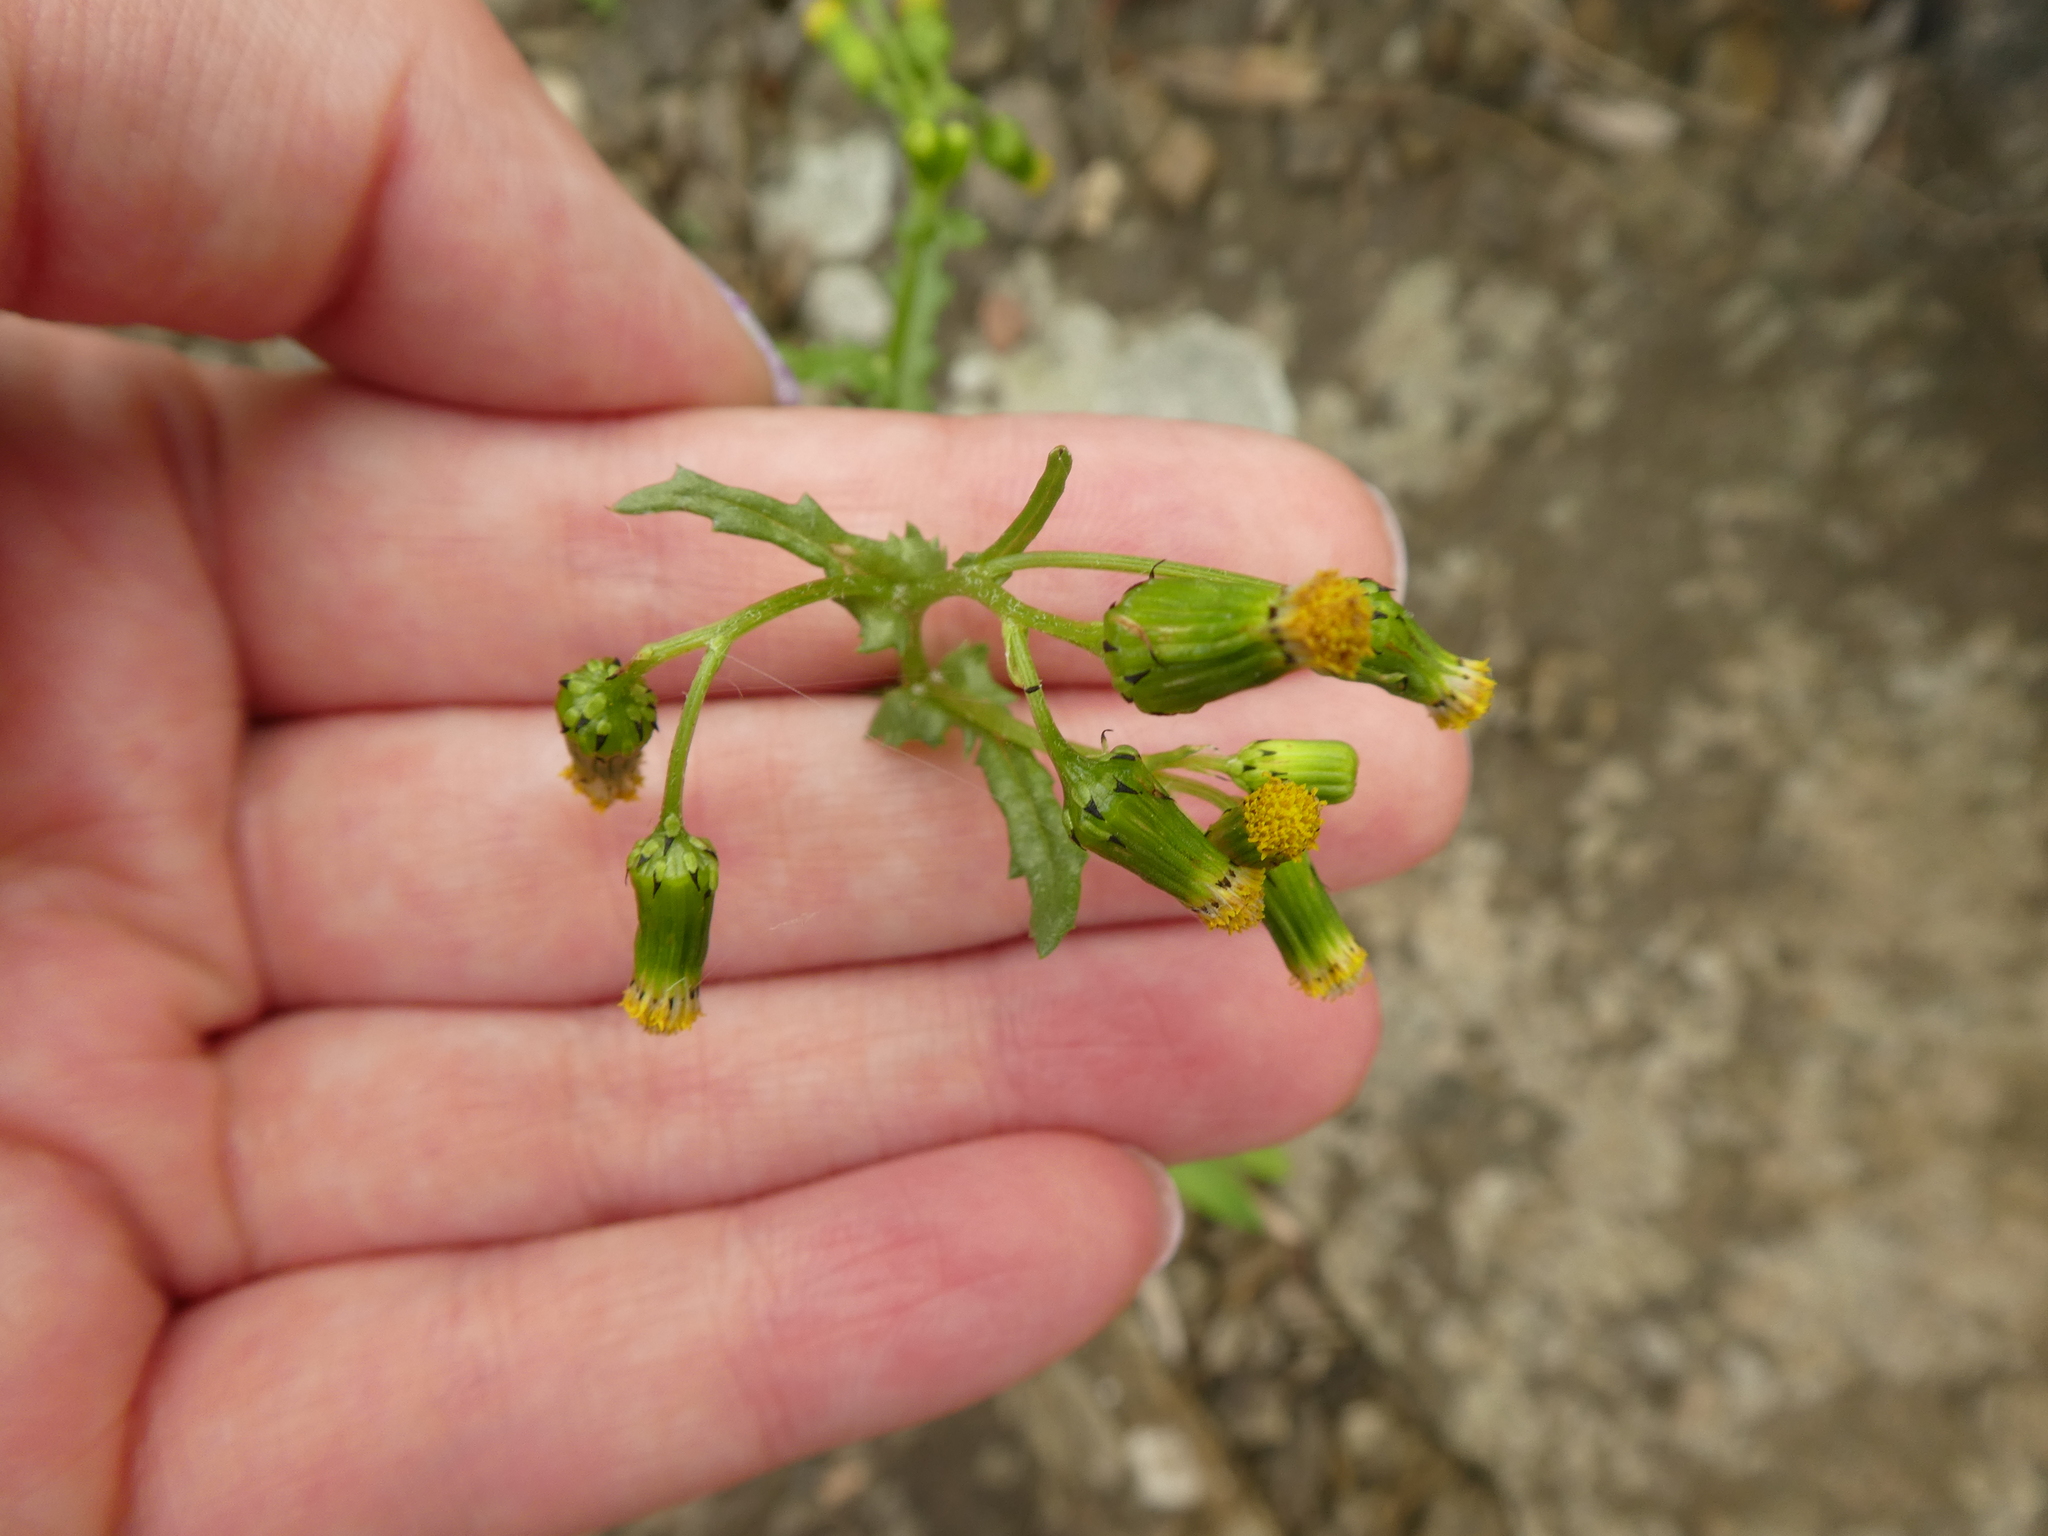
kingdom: Plantae
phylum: Tracheophyta
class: Magnoliopsida
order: Asterales
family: Asteraceae
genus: Senecio
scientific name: Senecio vulgaris
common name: Old-man-in-the-spring
